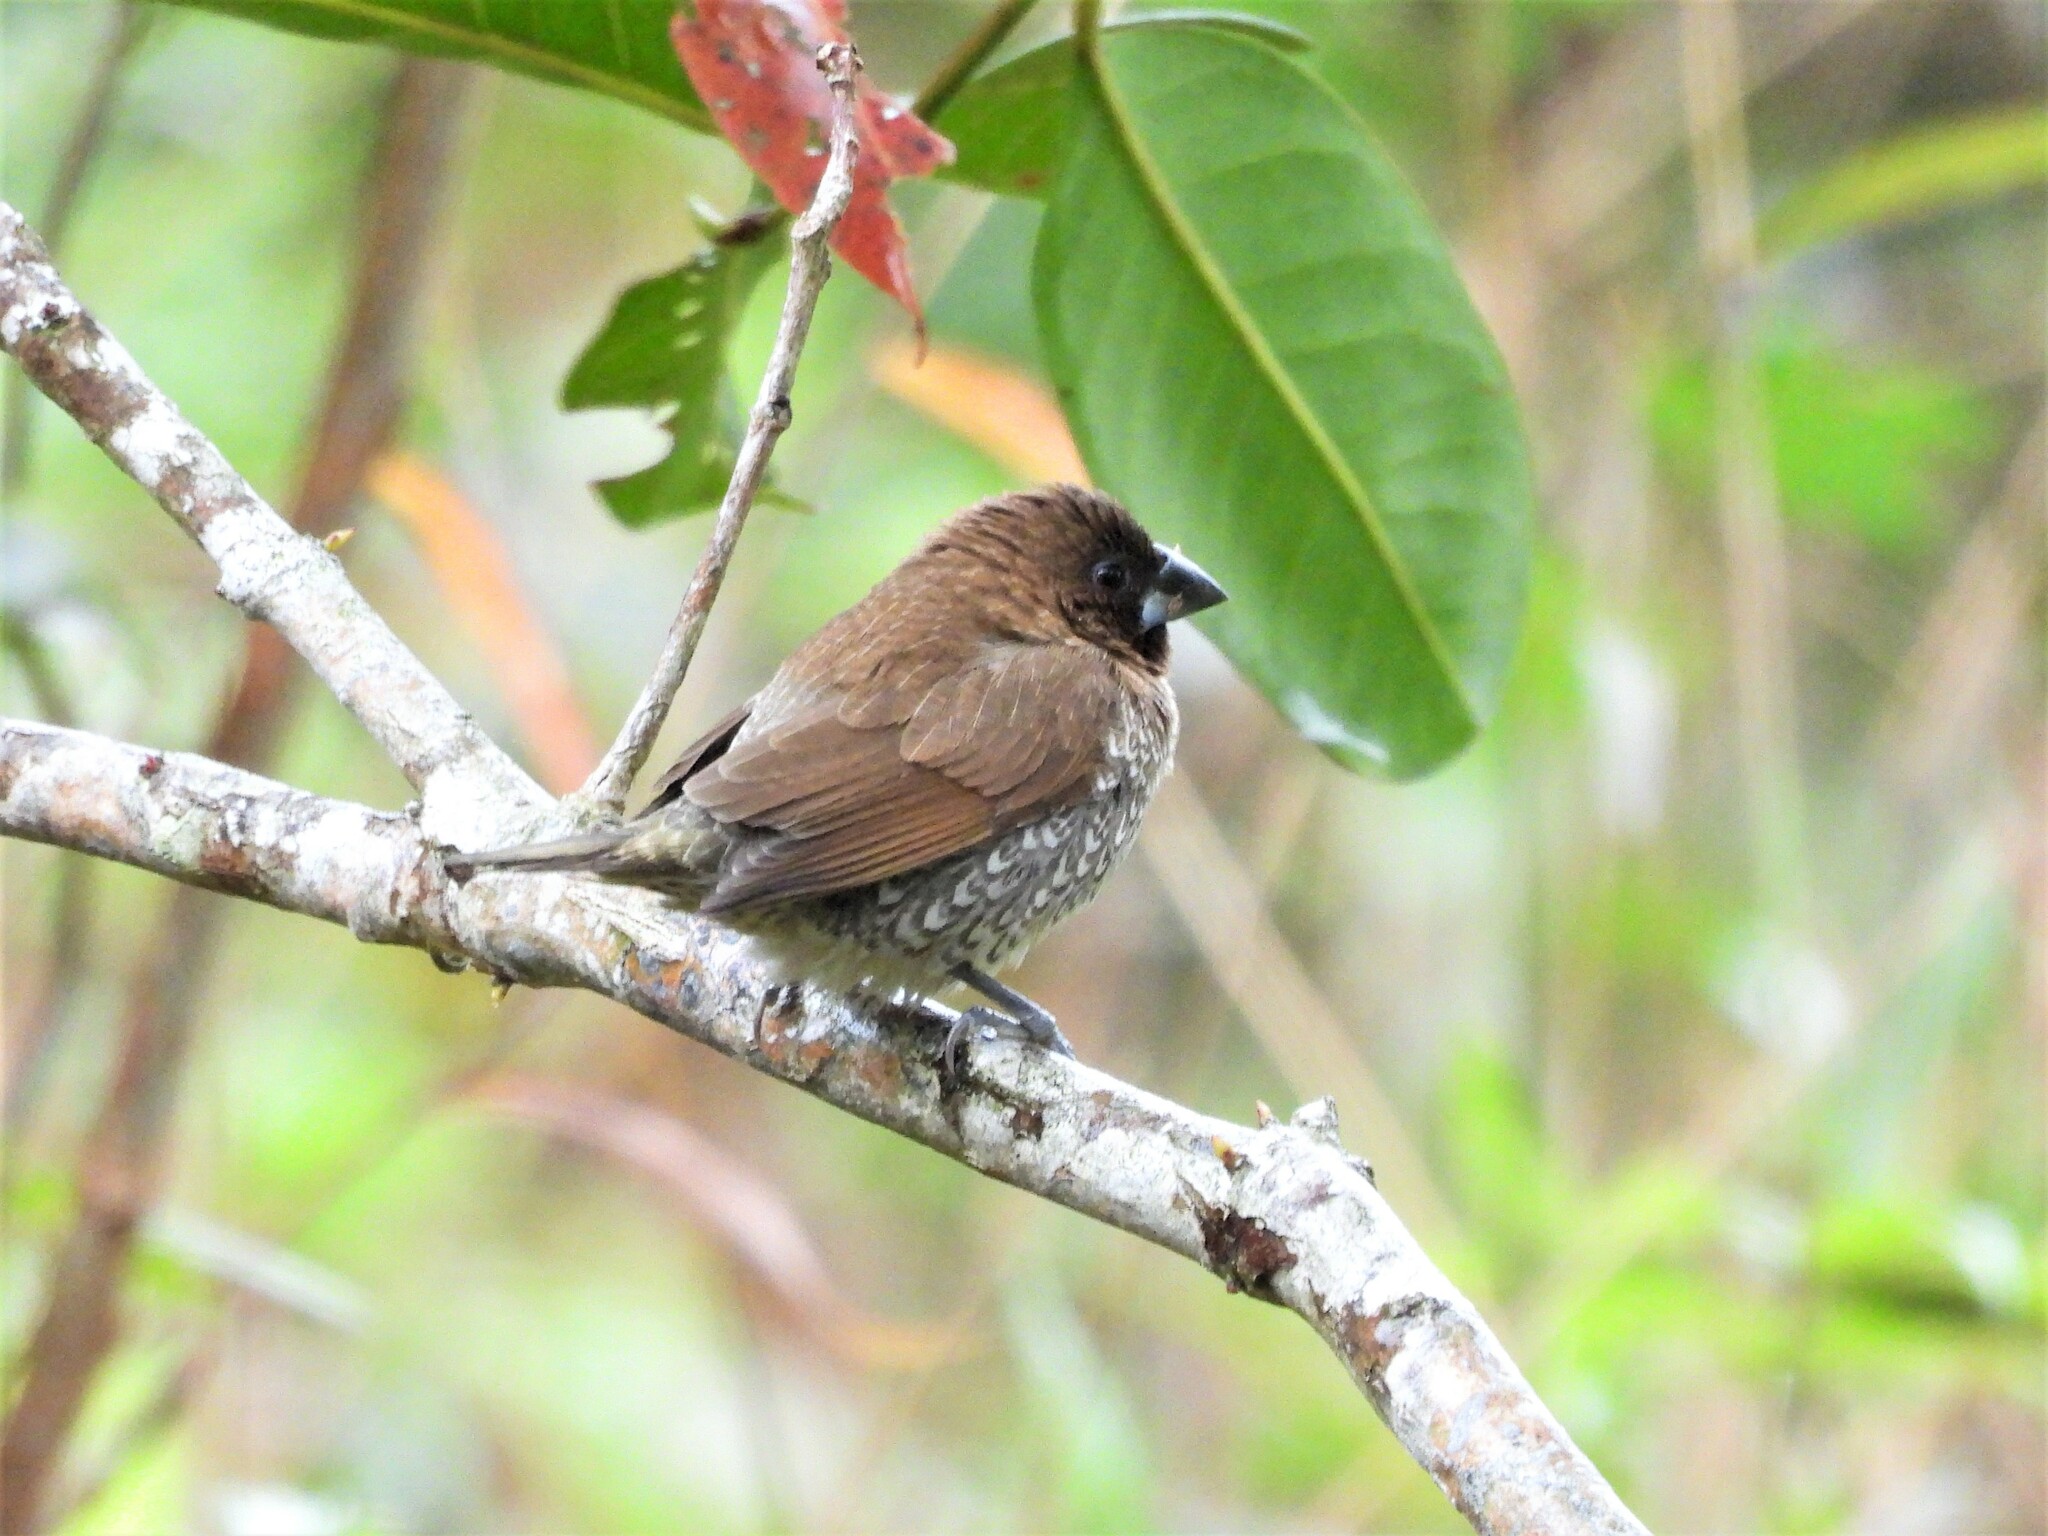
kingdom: Animalia
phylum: Chordata
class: Aves
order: Passeriformes
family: Estrildidae
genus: Lonchura
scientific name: Lonchura punctulata
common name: Scaly-breasted munia
